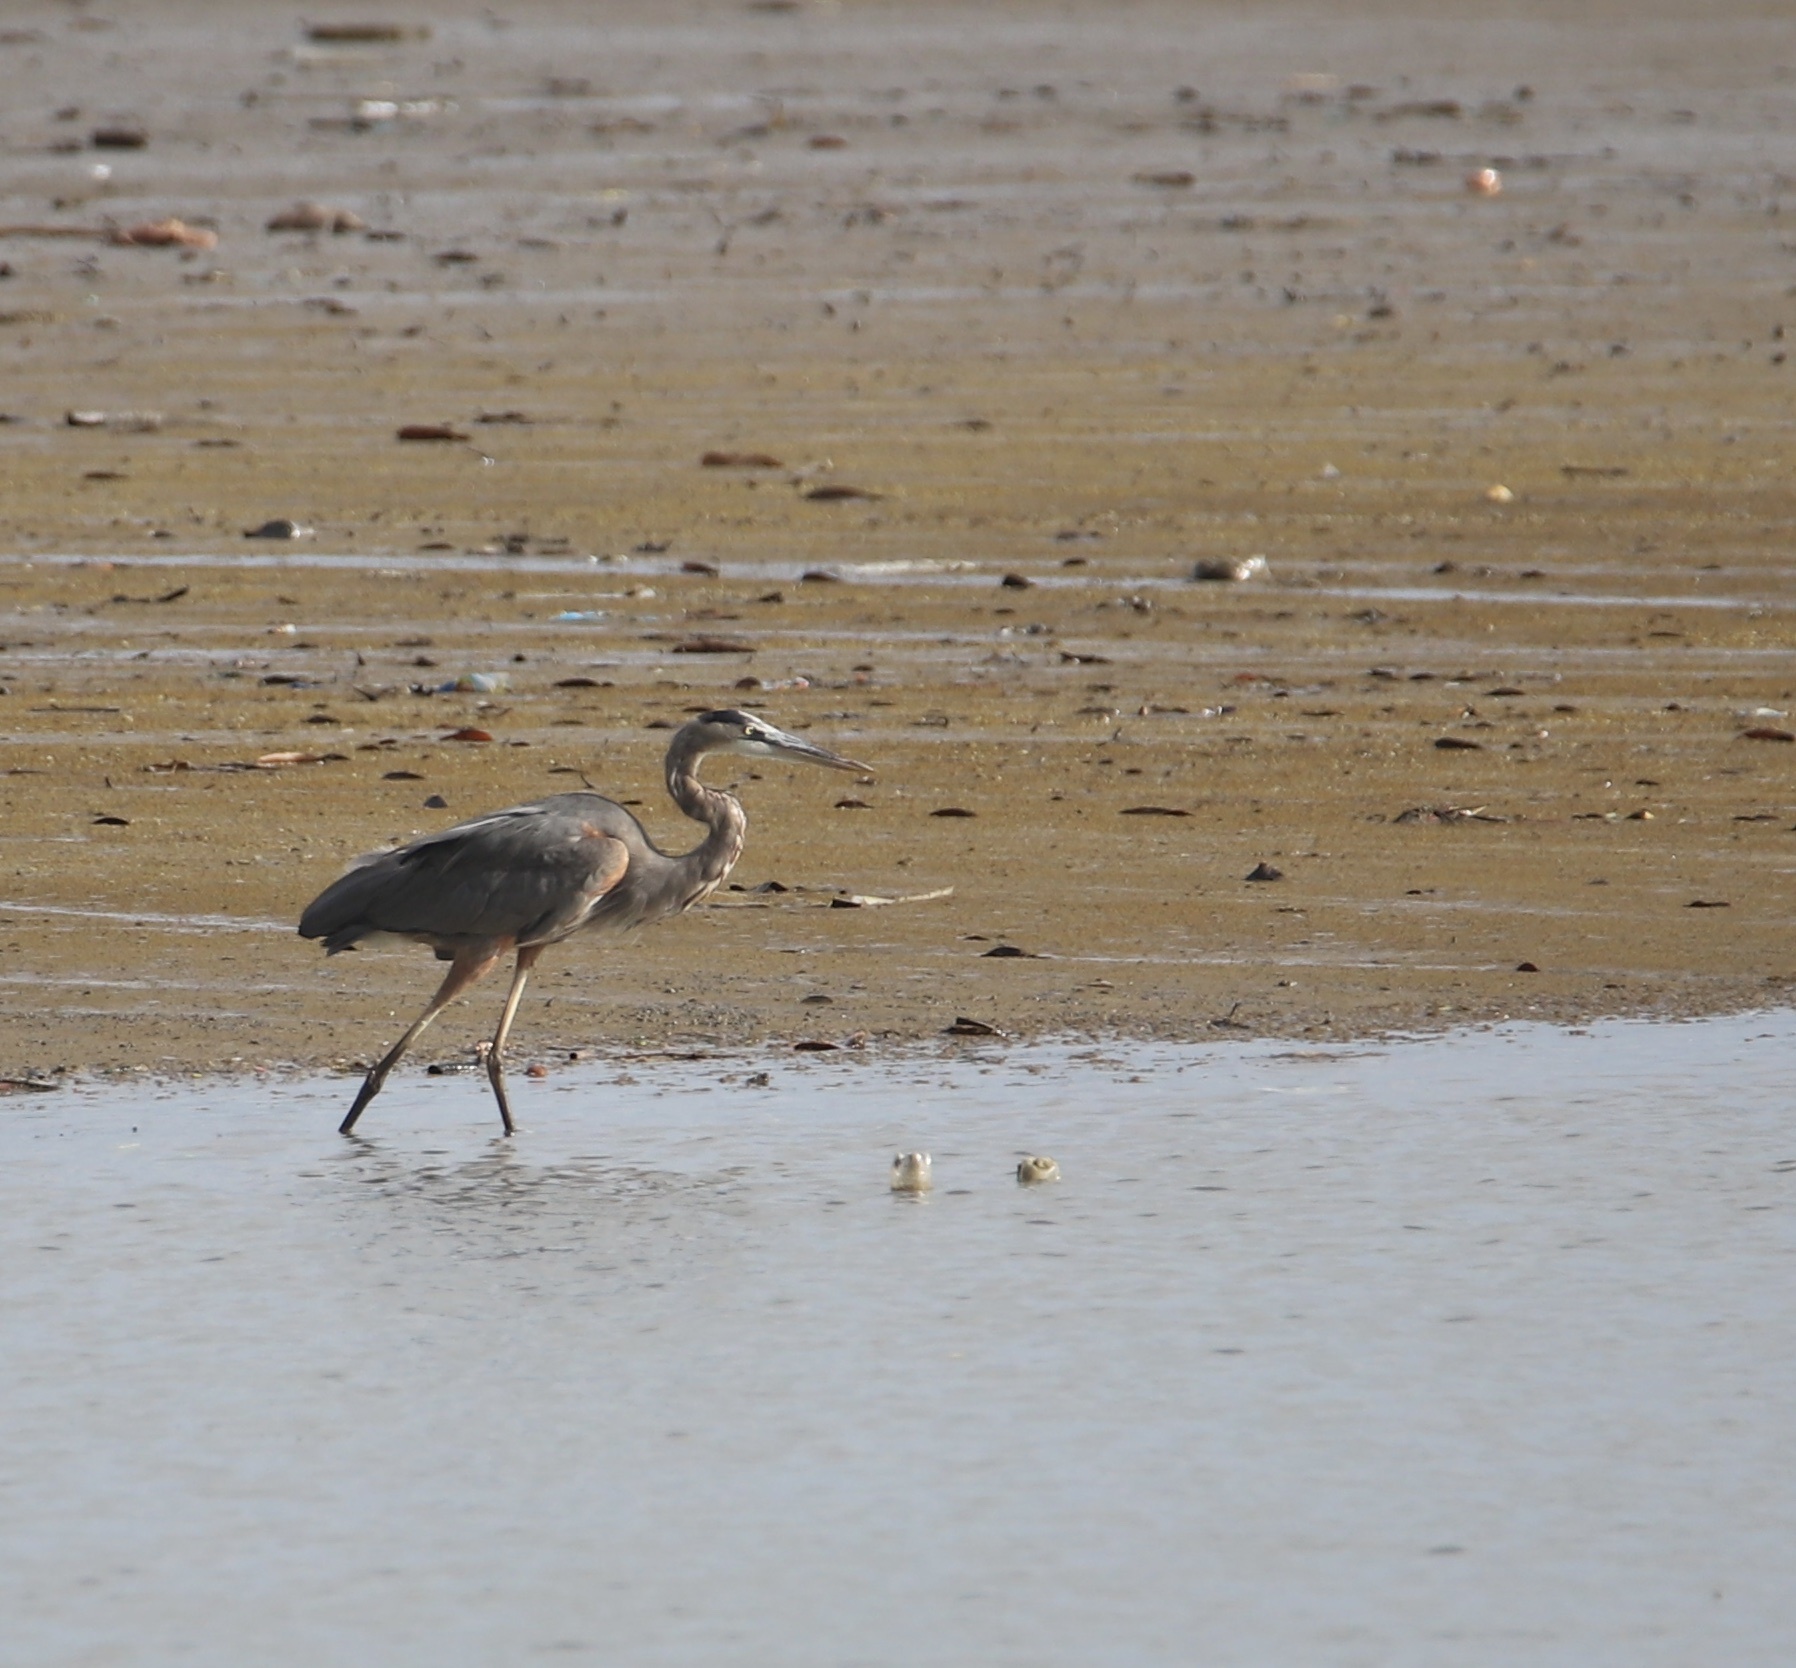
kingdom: Animalia
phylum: Chordata
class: Aves
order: Pelecaniformes
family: Ardeidae
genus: Ardea
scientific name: Ardea herodias
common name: Great blue heron
